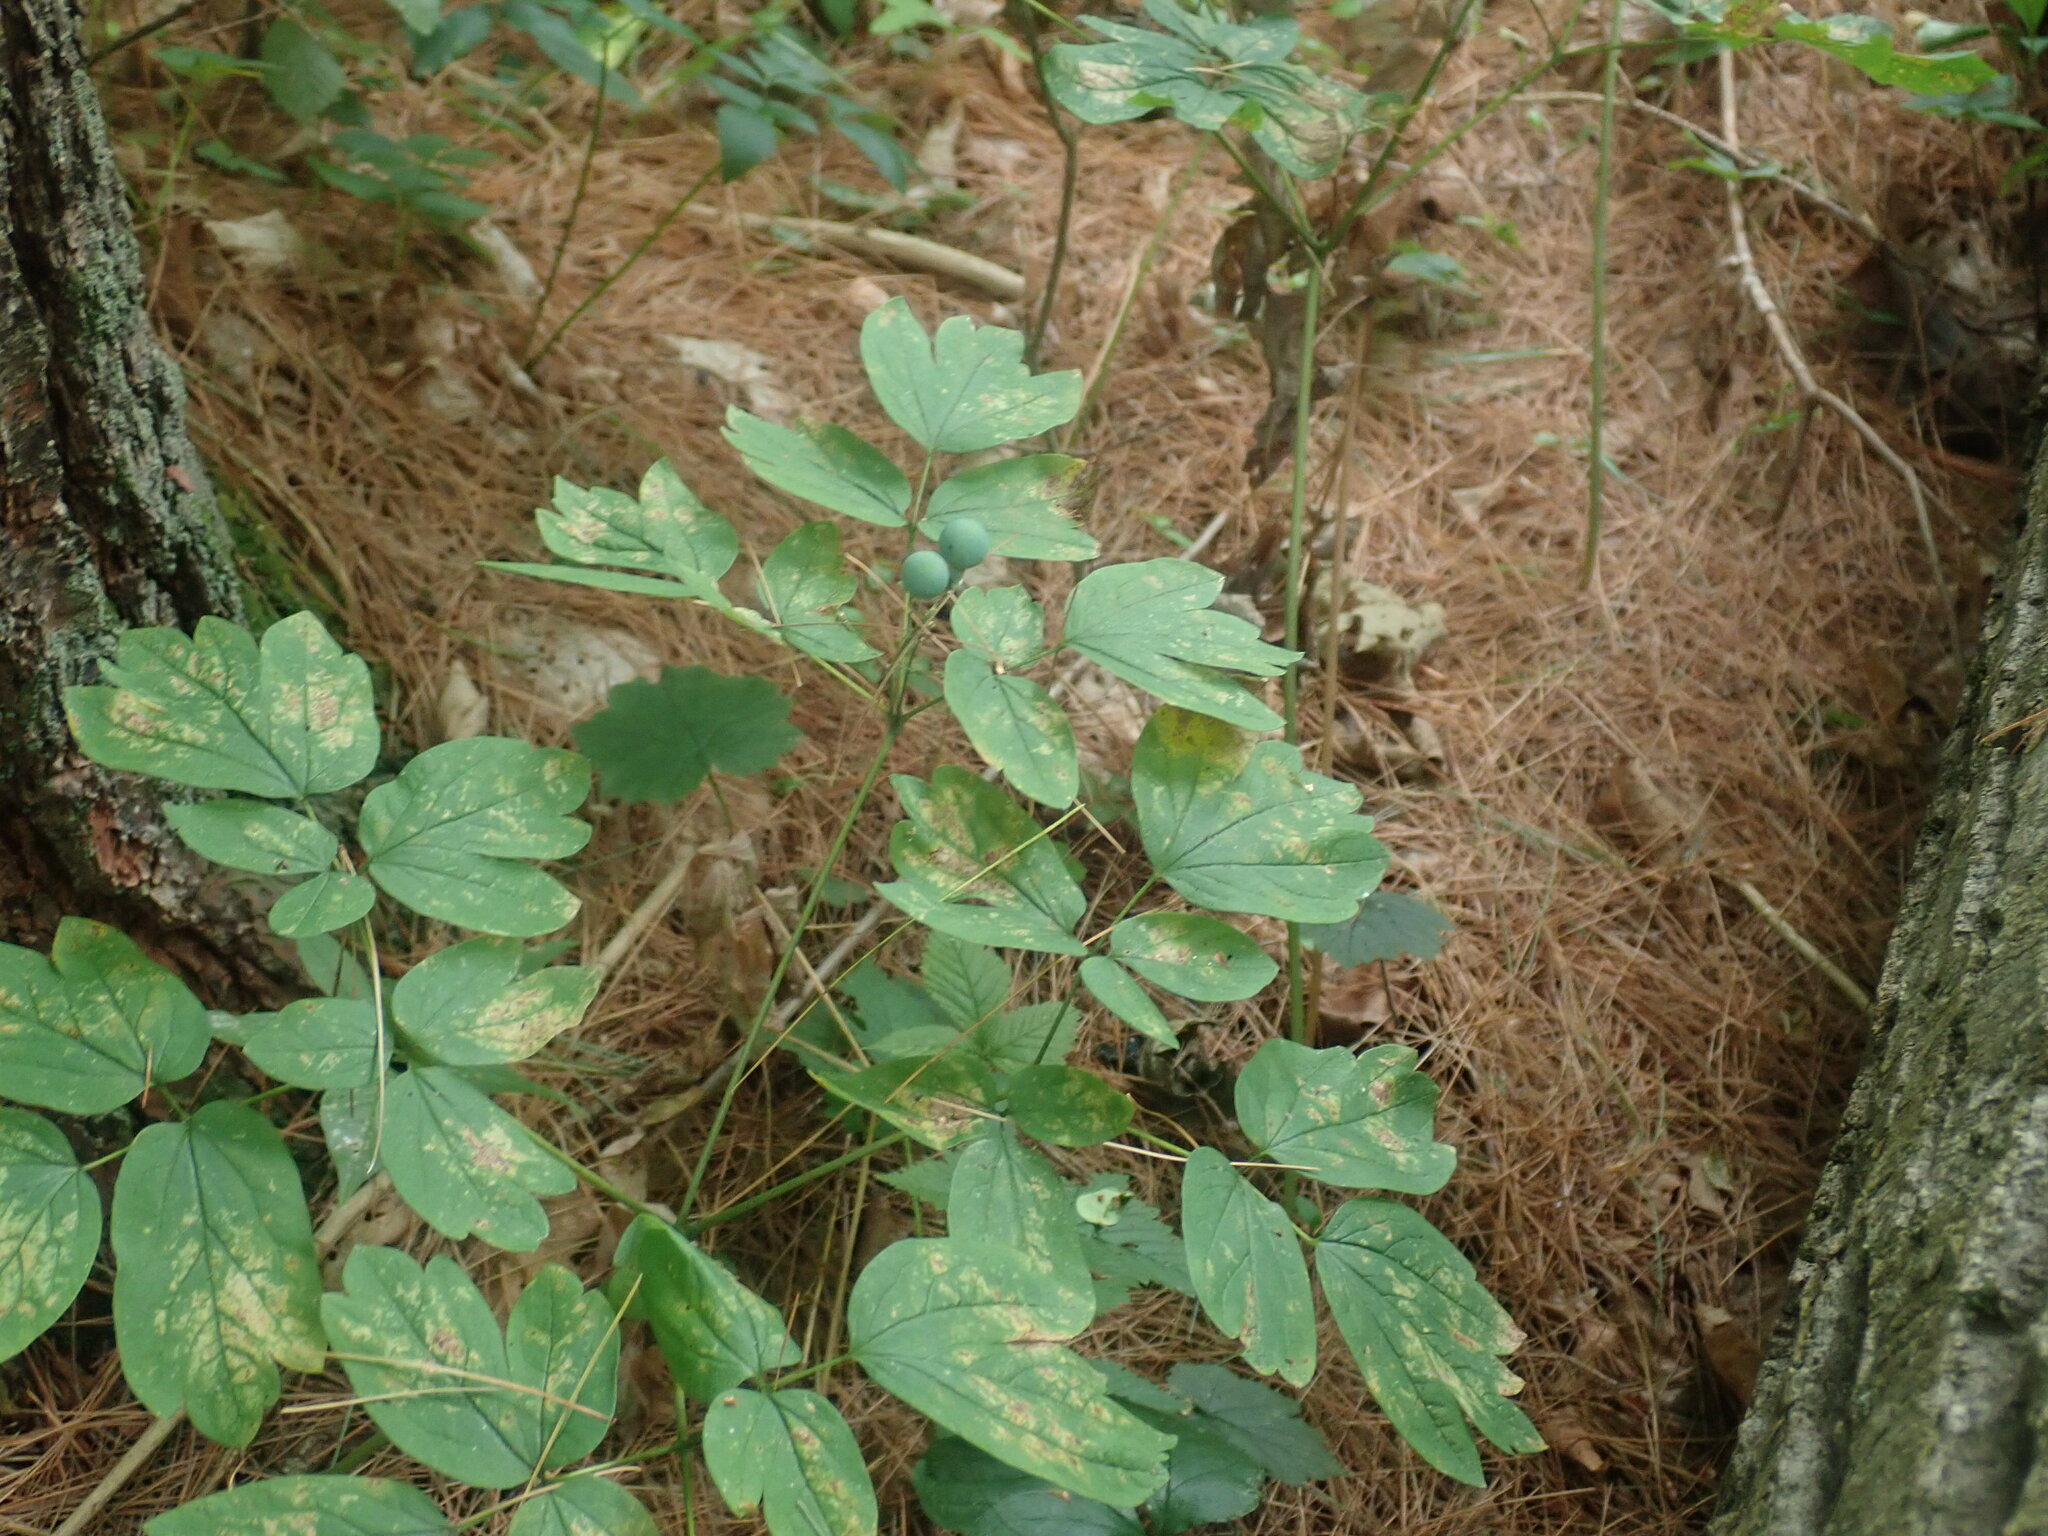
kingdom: Plantae
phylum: Tracheophyta
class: Magnoliopsida
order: Ranunculales
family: Berberidaceae
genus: Caulophyllum
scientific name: Caulophyllum
